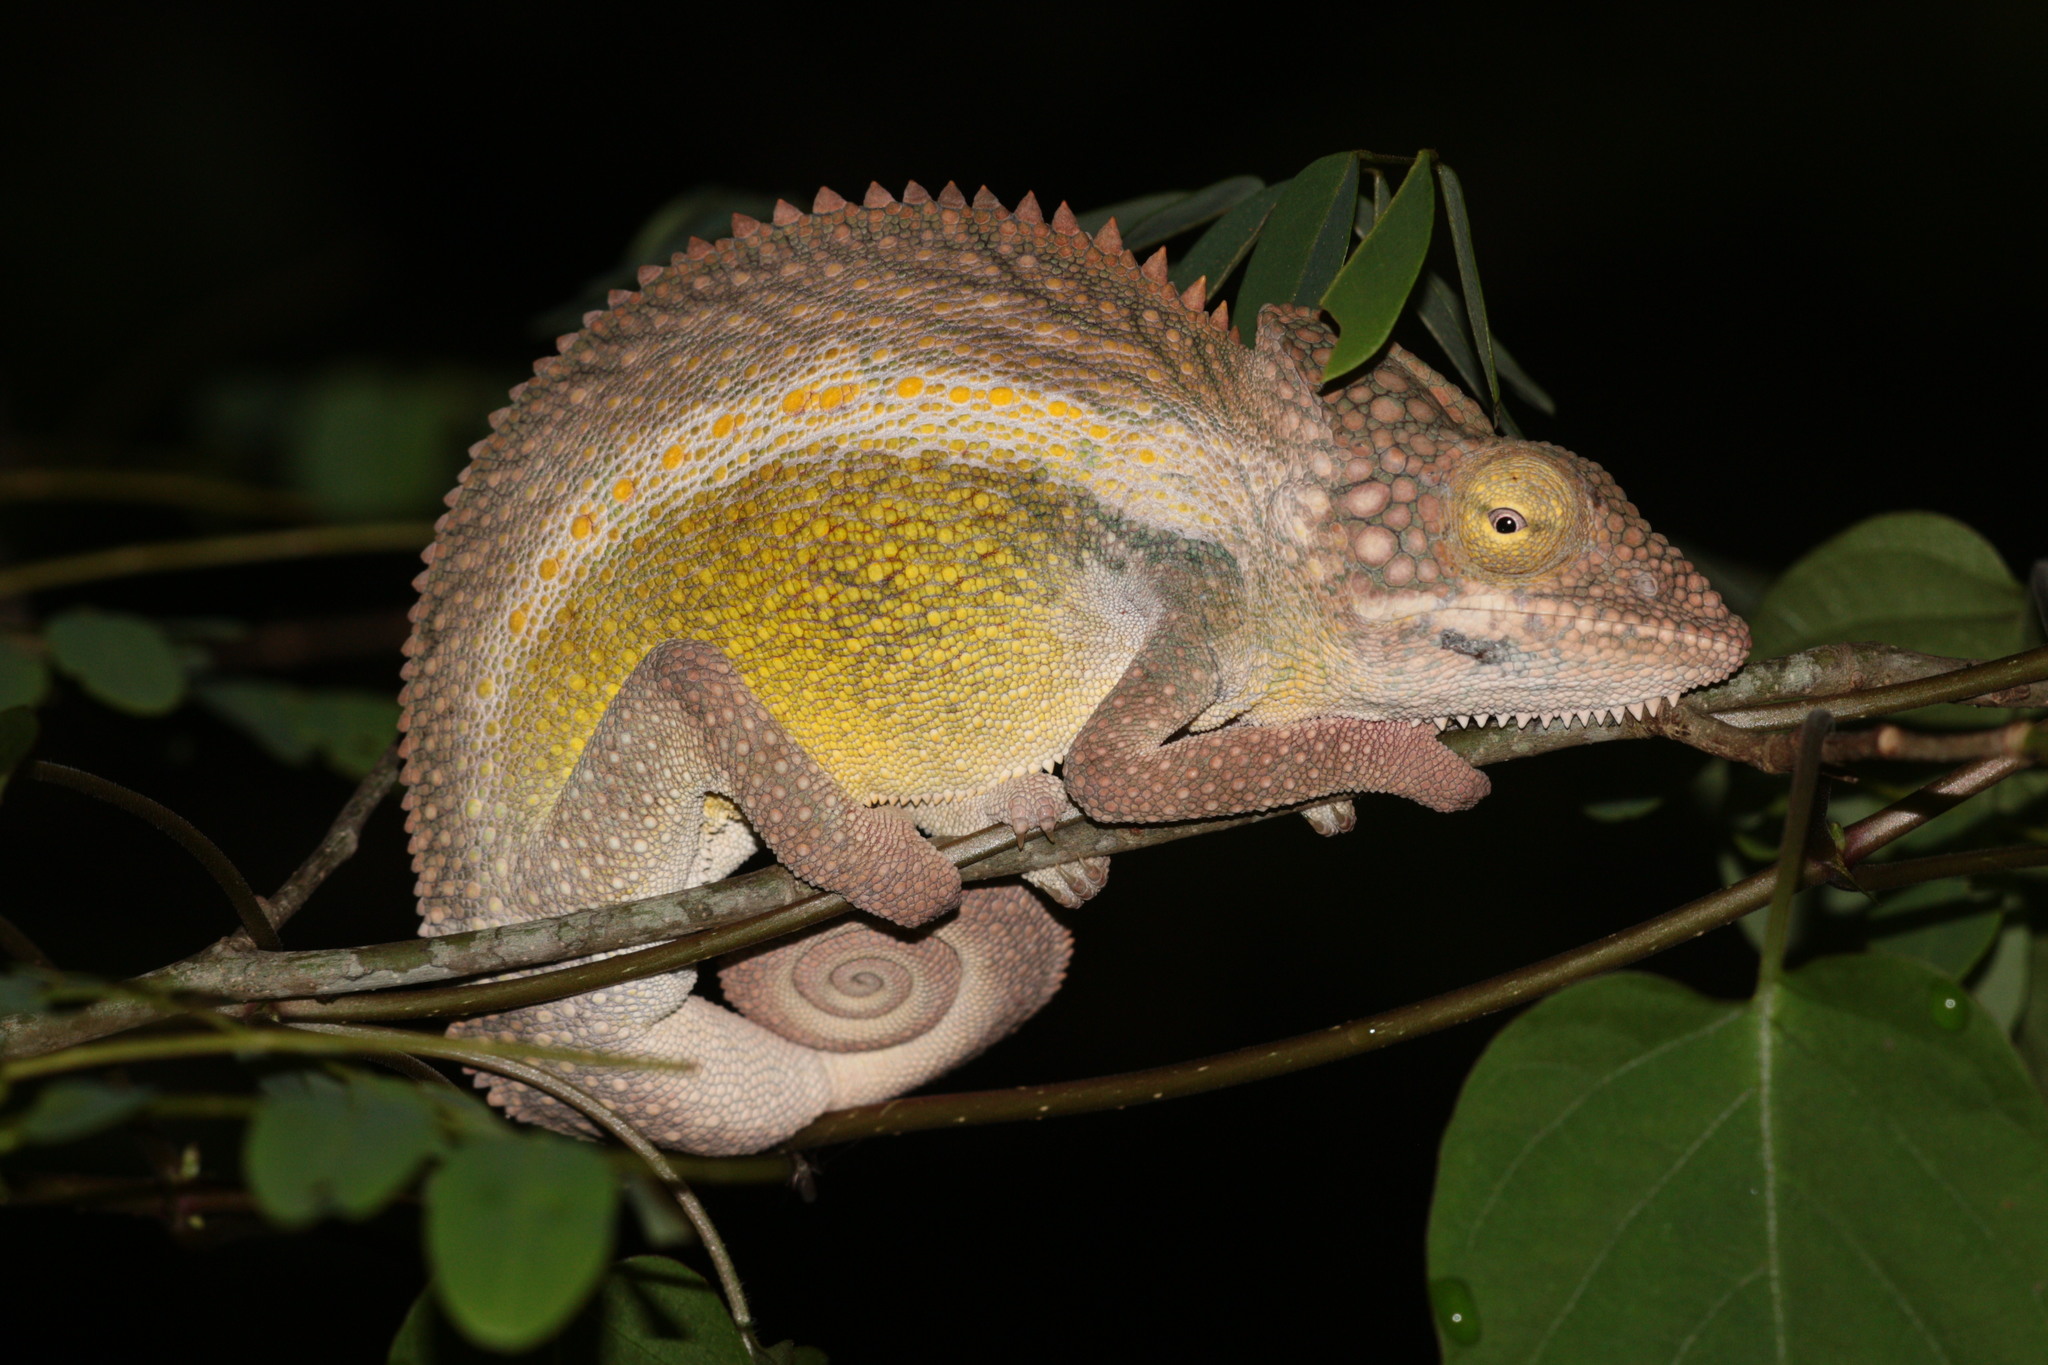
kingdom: Animalia
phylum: Chordata
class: Squamata
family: Chamaeleonidae
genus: Furcifer
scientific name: Furcifer nicosiai
